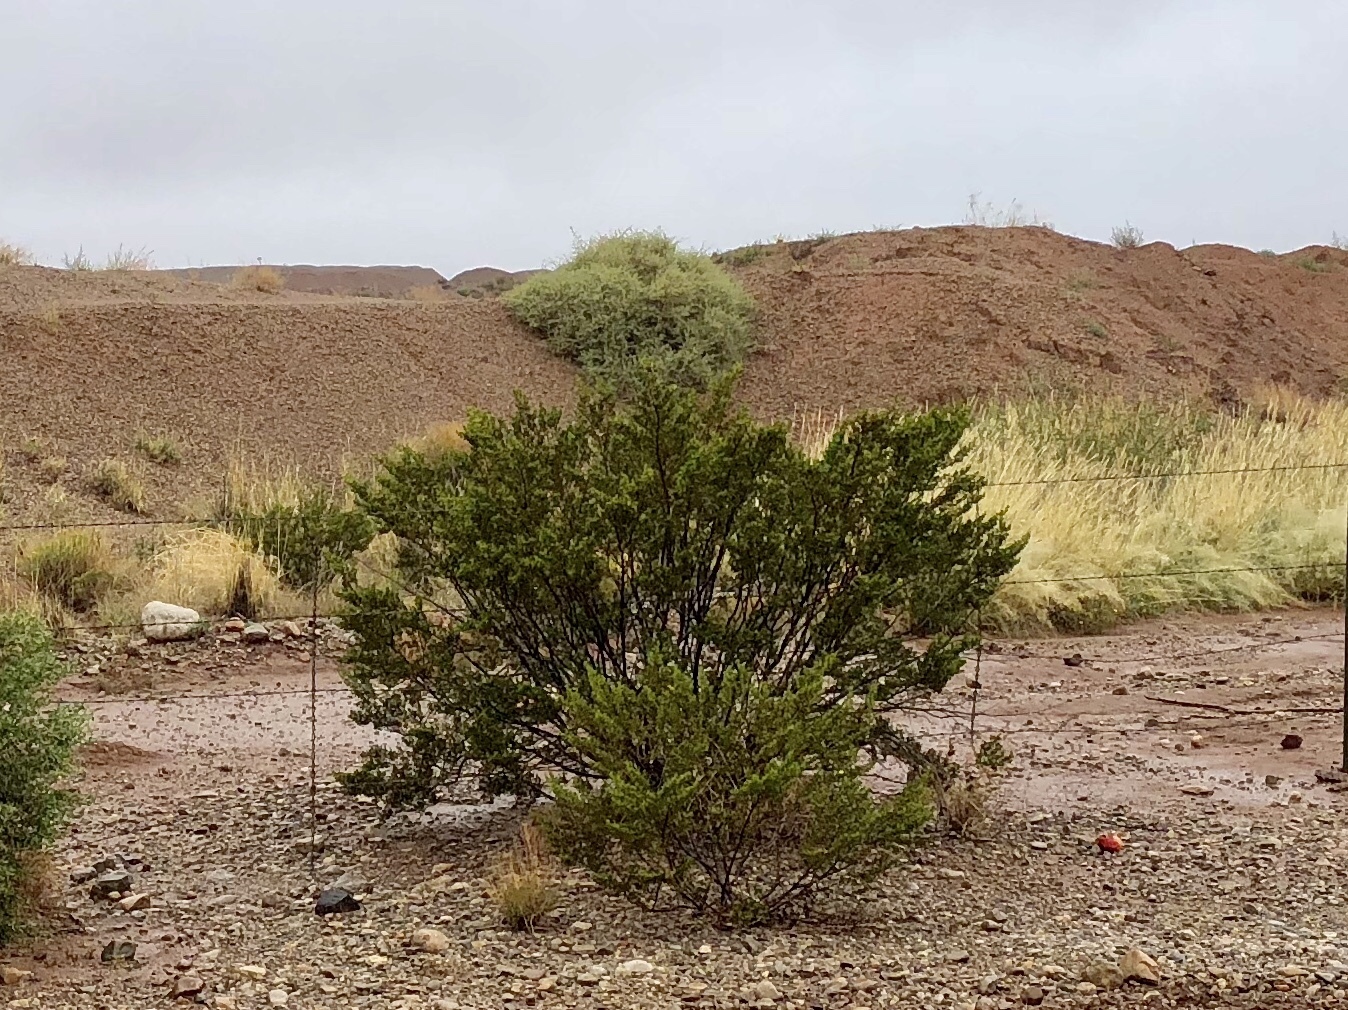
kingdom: Plantae
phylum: Tracheophyta
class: Magnoliopsida
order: Zygophyllales
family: Zygophyllaceae
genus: Larrea
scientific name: Larrea tridentata
